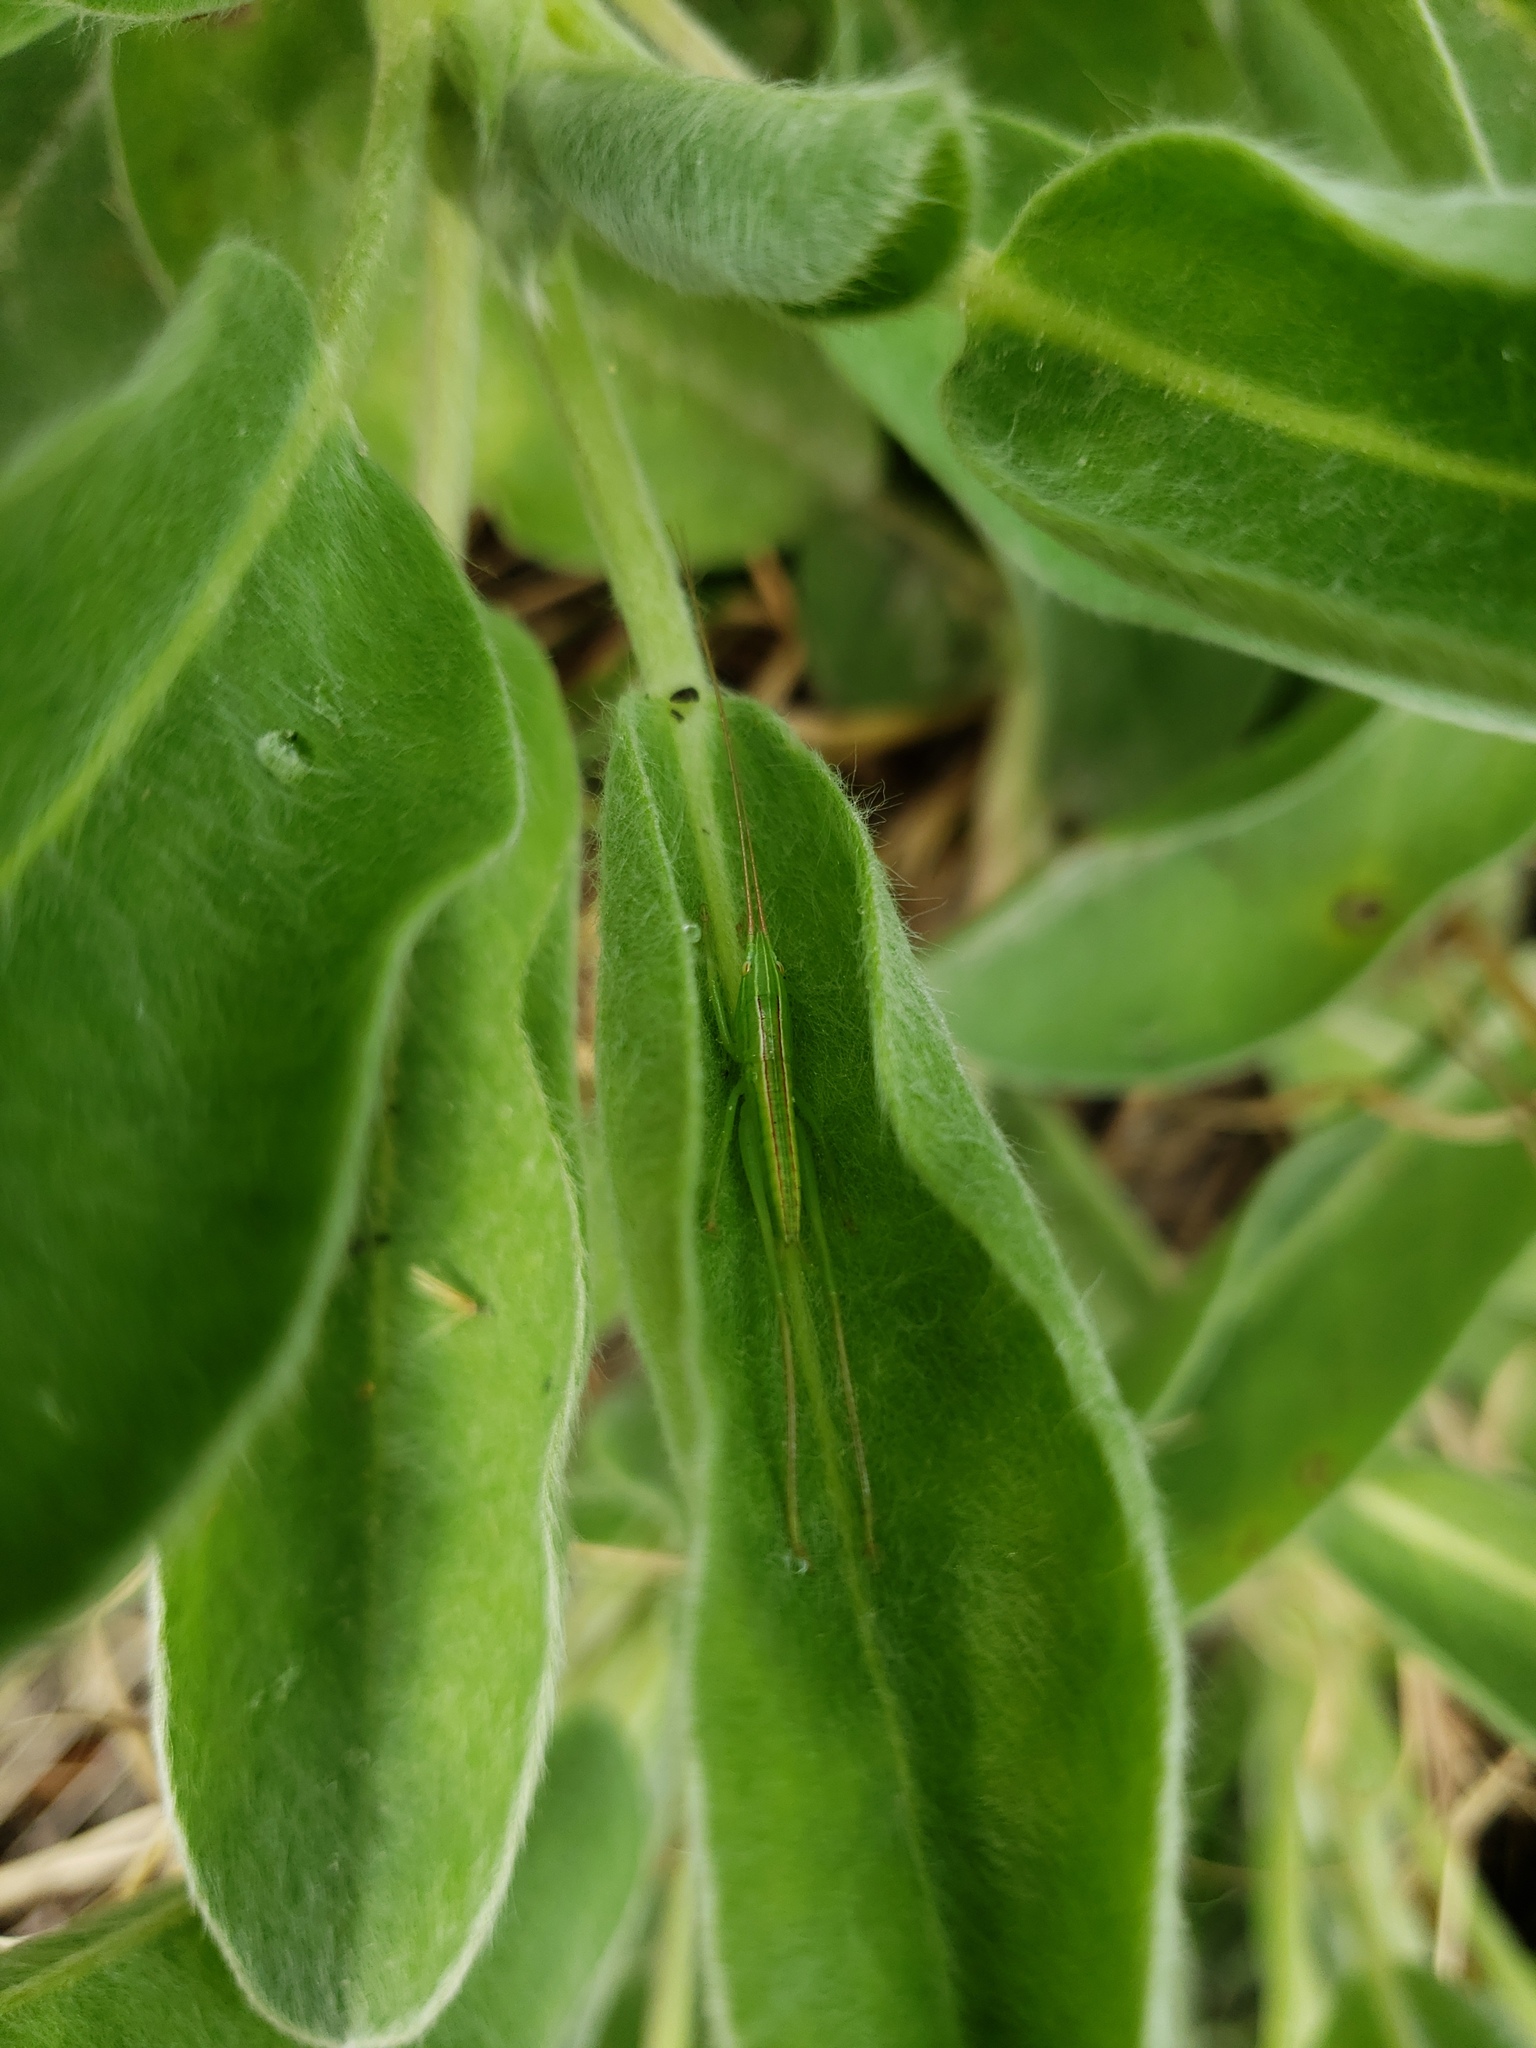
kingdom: Plantae
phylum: Tracheophyta
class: Magnoliopsida
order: Fabales
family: Fabaceae
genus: Lupinus
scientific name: Lupinus
